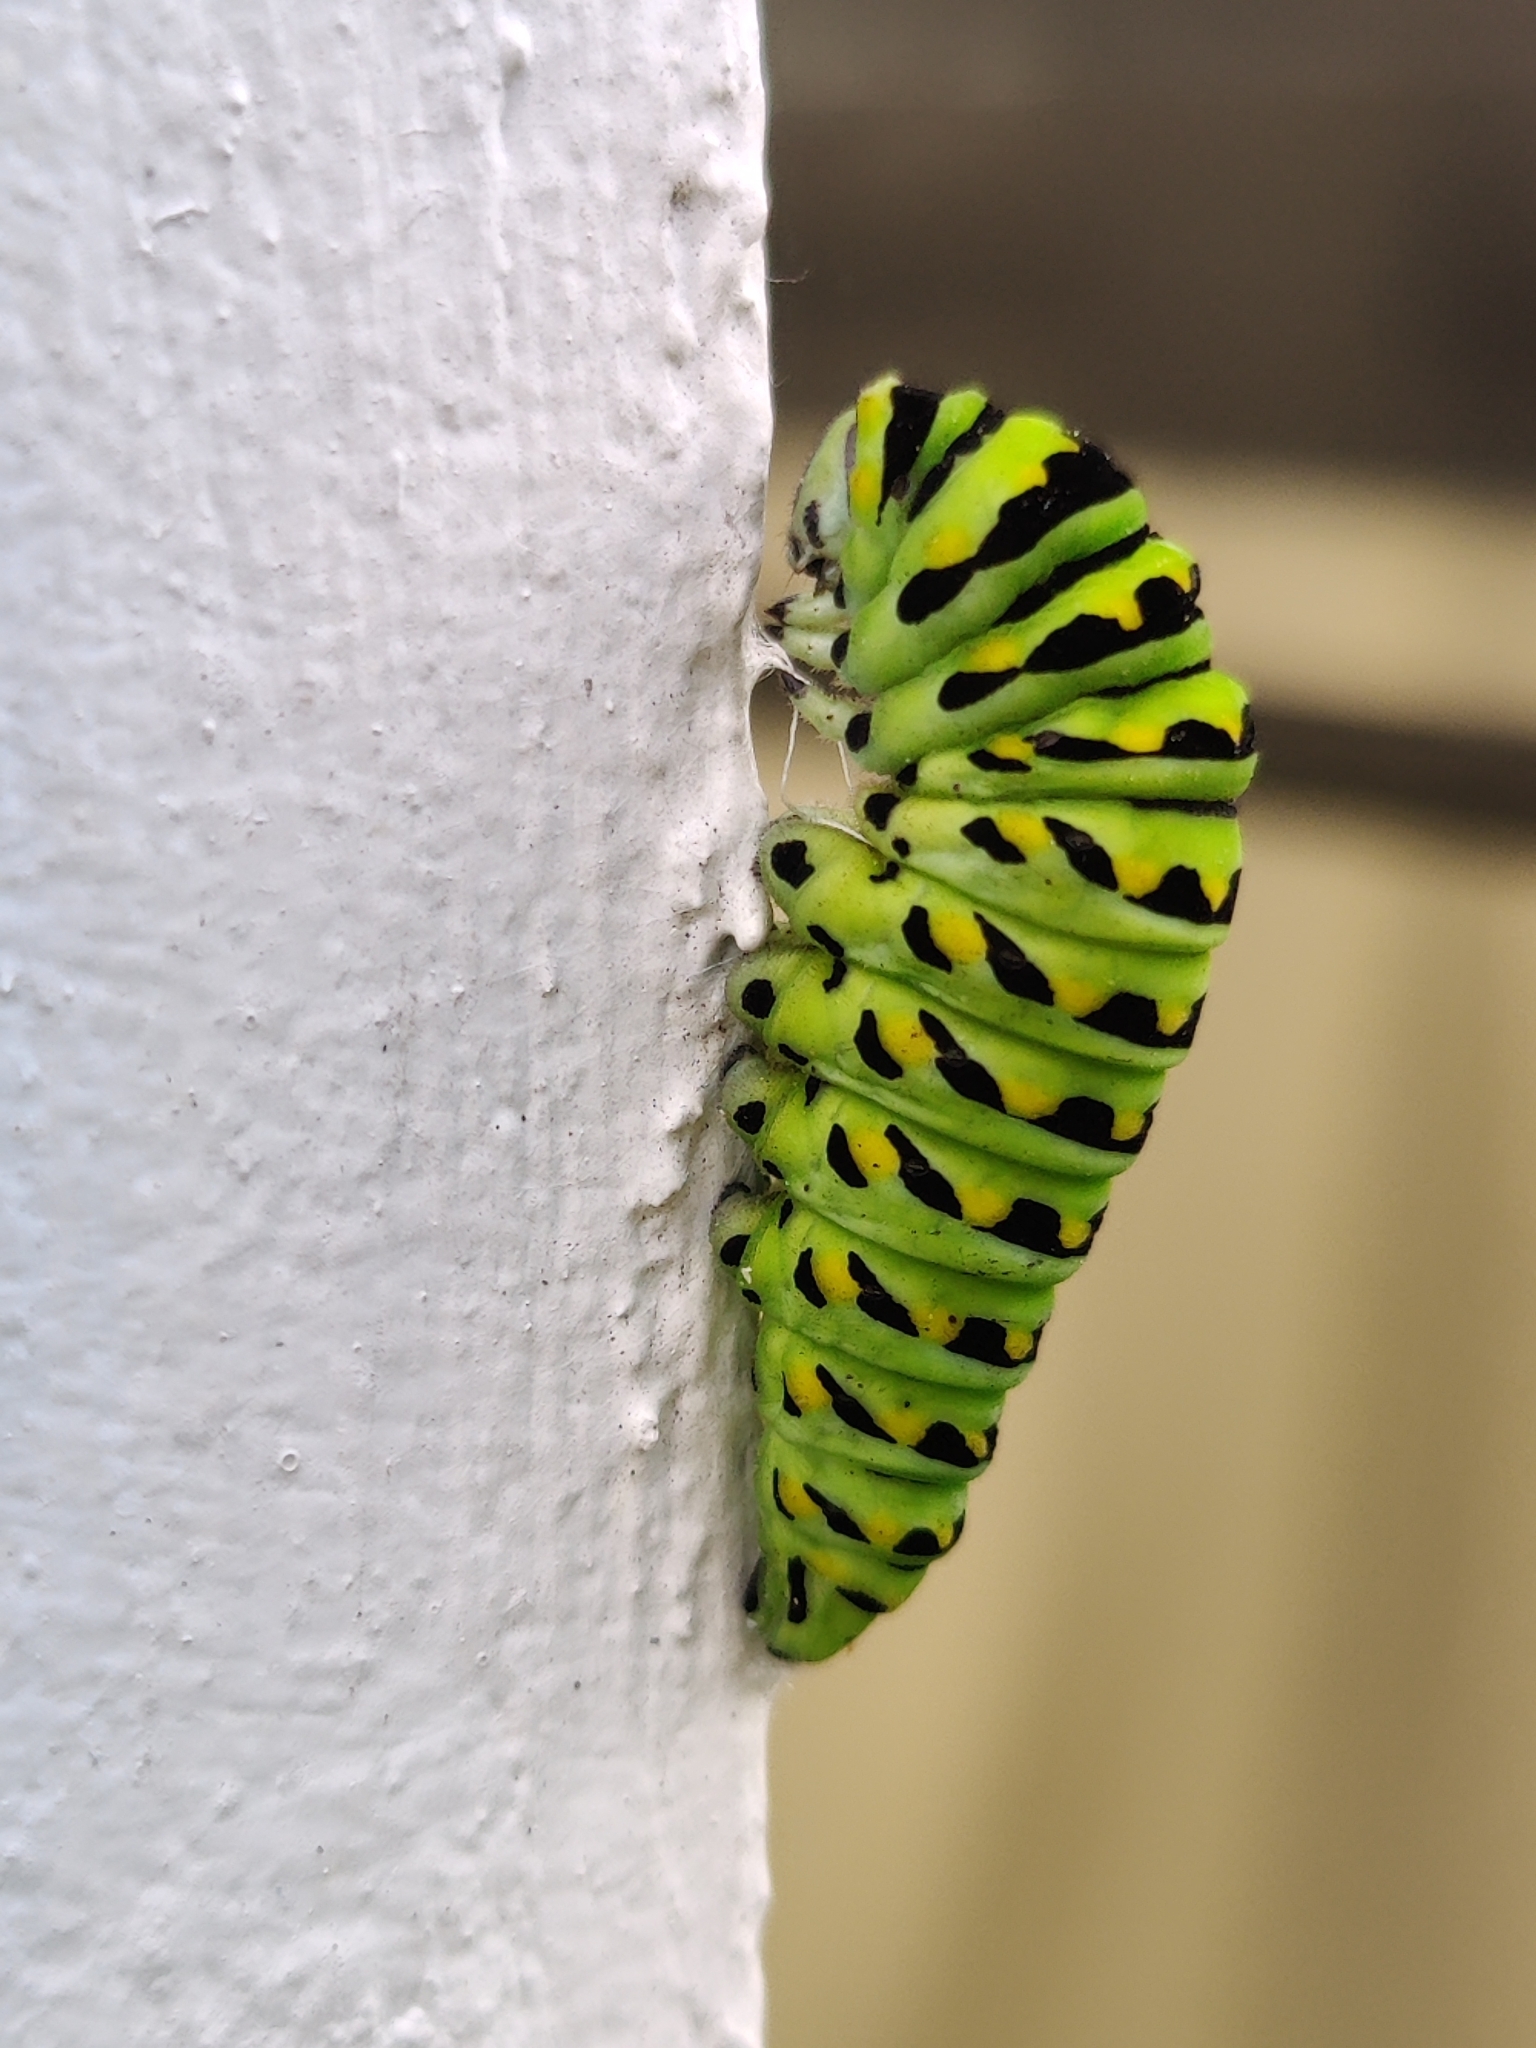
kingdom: Animalia
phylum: Arthropoda
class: Insecta
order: Lepidoptera
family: Papilionidae
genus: Papilio
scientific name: Papilio polyxenes
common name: Black swallowtail
